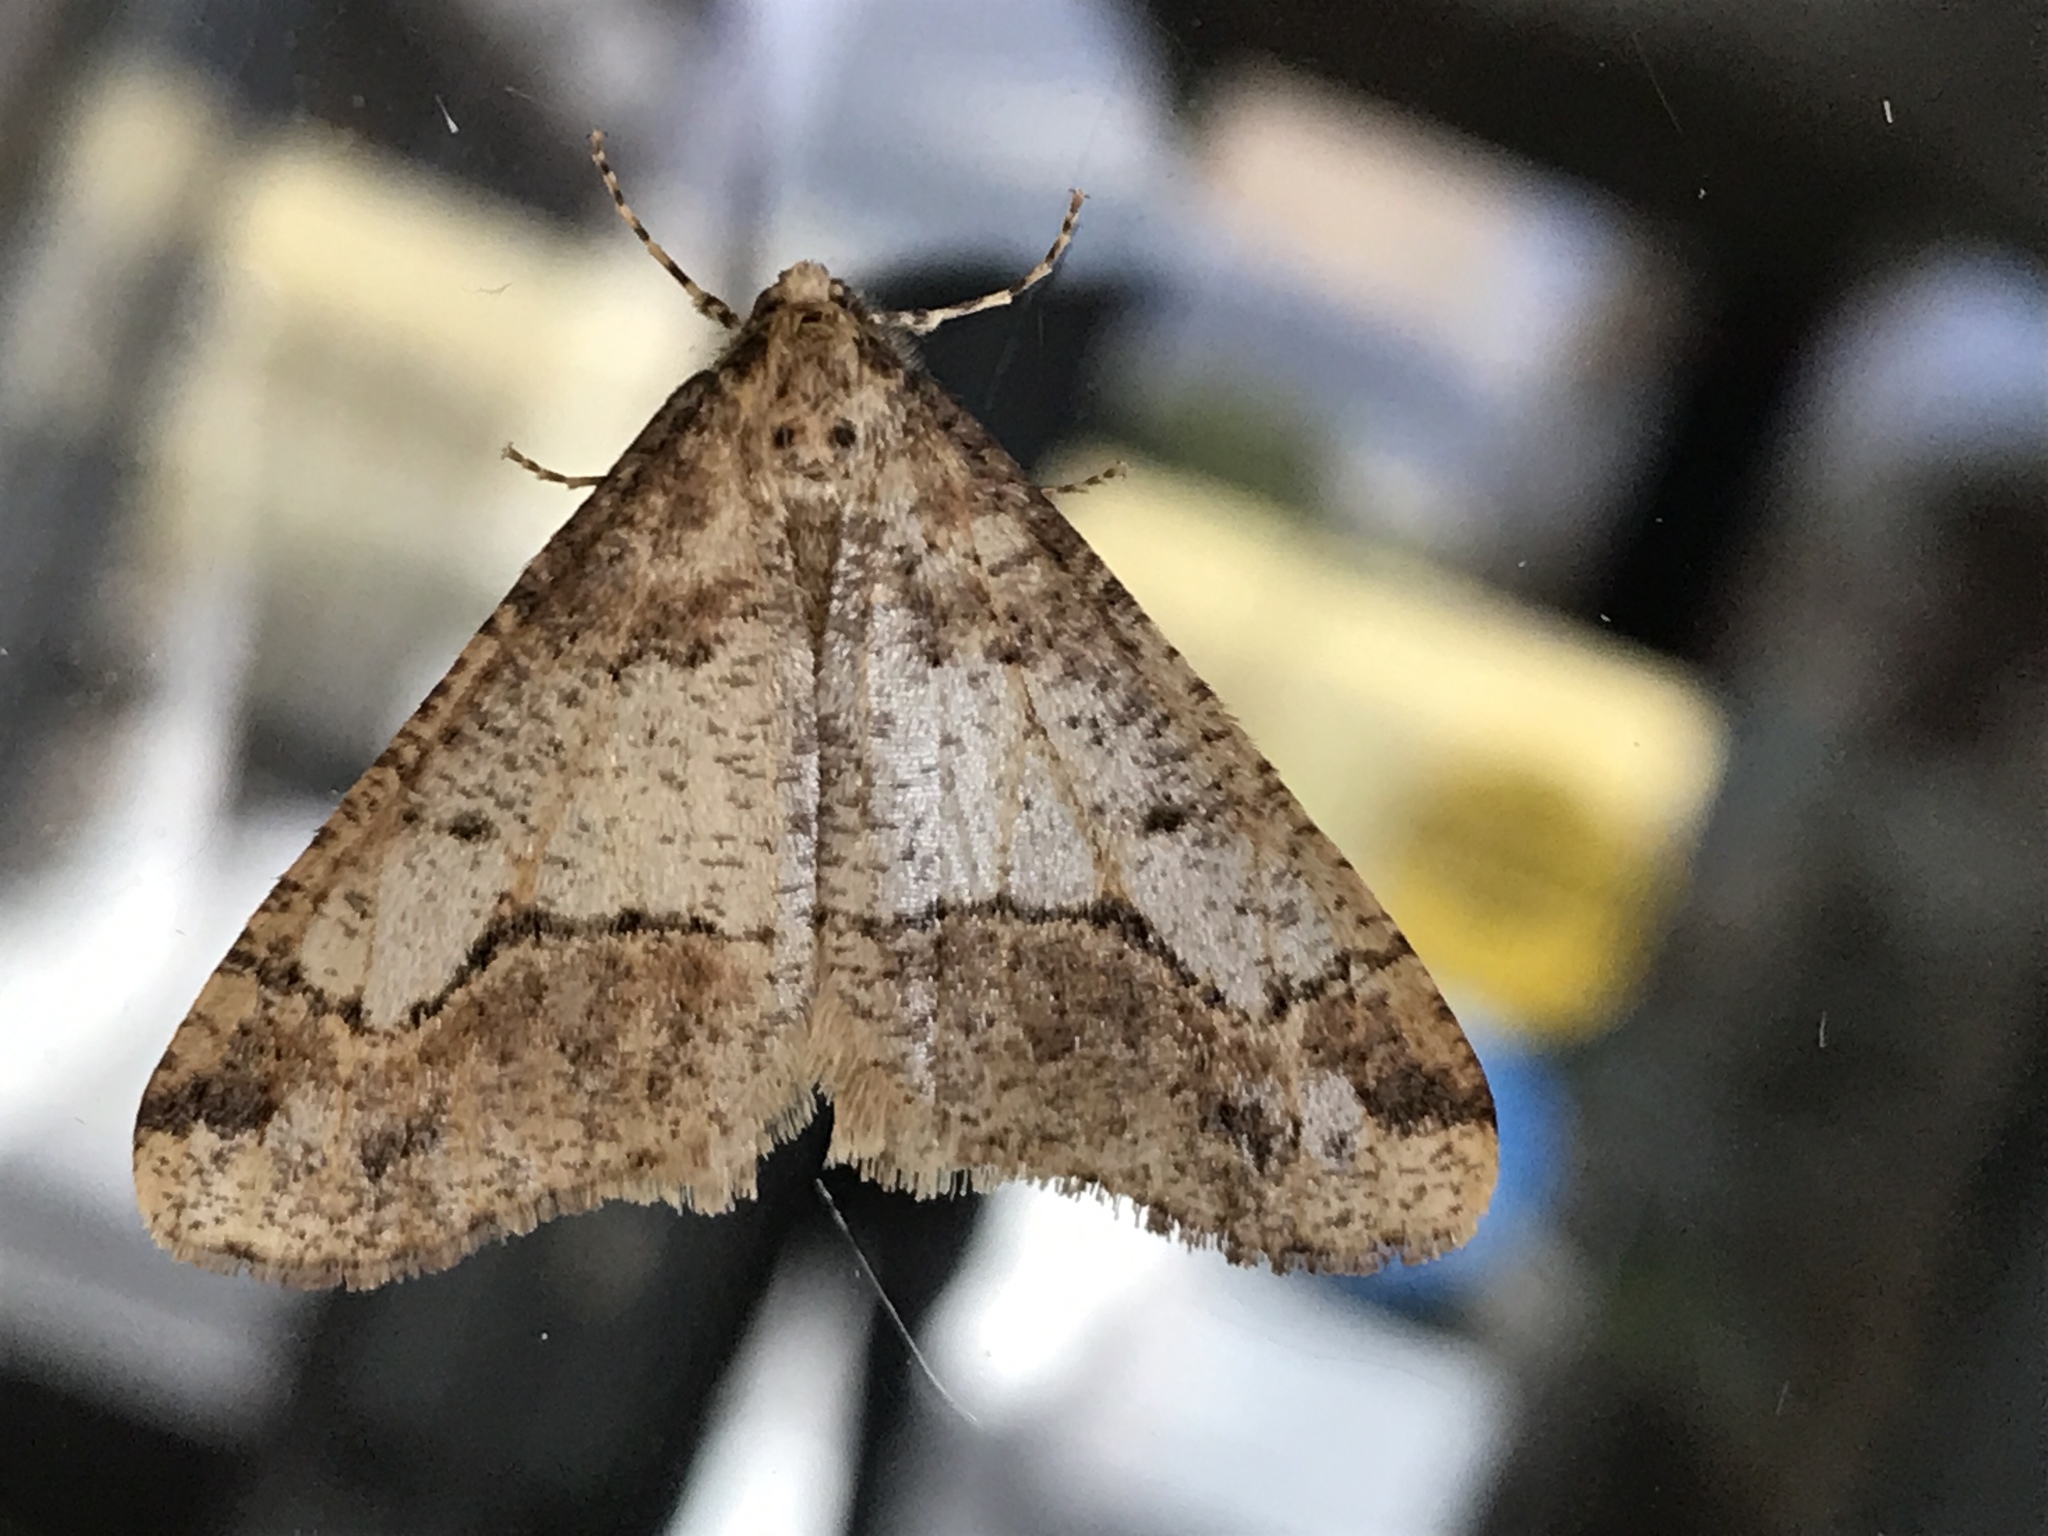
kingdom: Animalia
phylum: Arthropoda
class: Insecta
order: Lepidoptera
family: Geometridae
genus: Erannis
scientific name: Erannis tiliaria
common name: Linden looper
